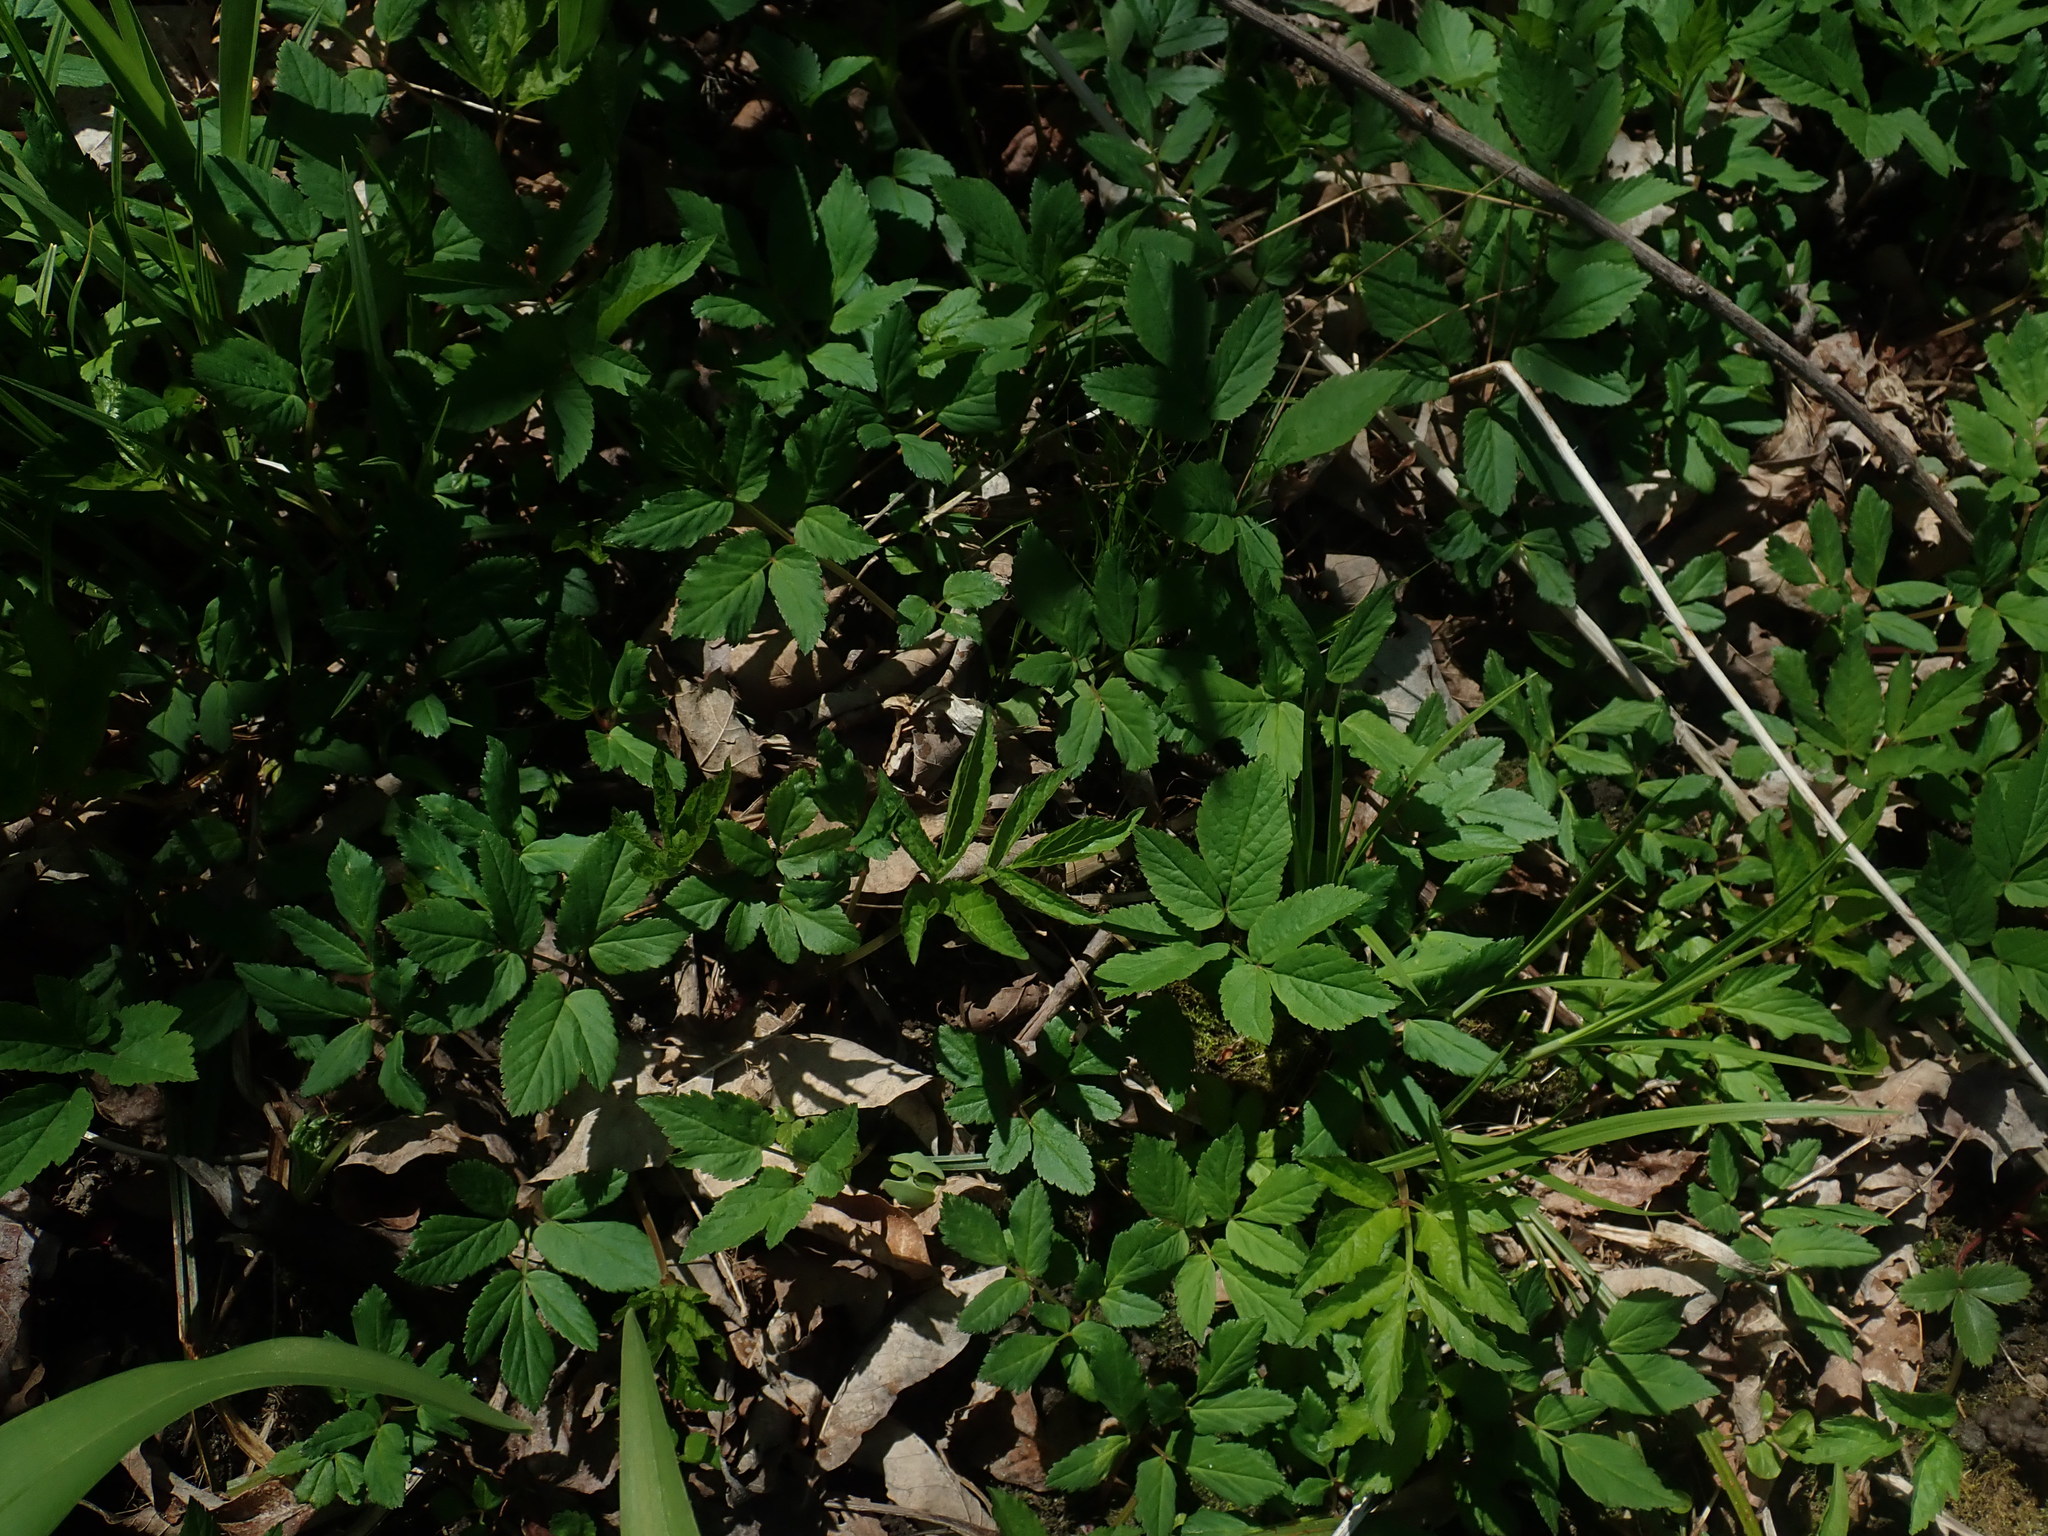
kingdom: Plantae
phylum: Tracheophyta
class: Magnoliopsida
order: Apiales
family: Apiaceae
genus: Aegopodium
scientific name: Aegopodium podagraria
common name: Ground-elder
